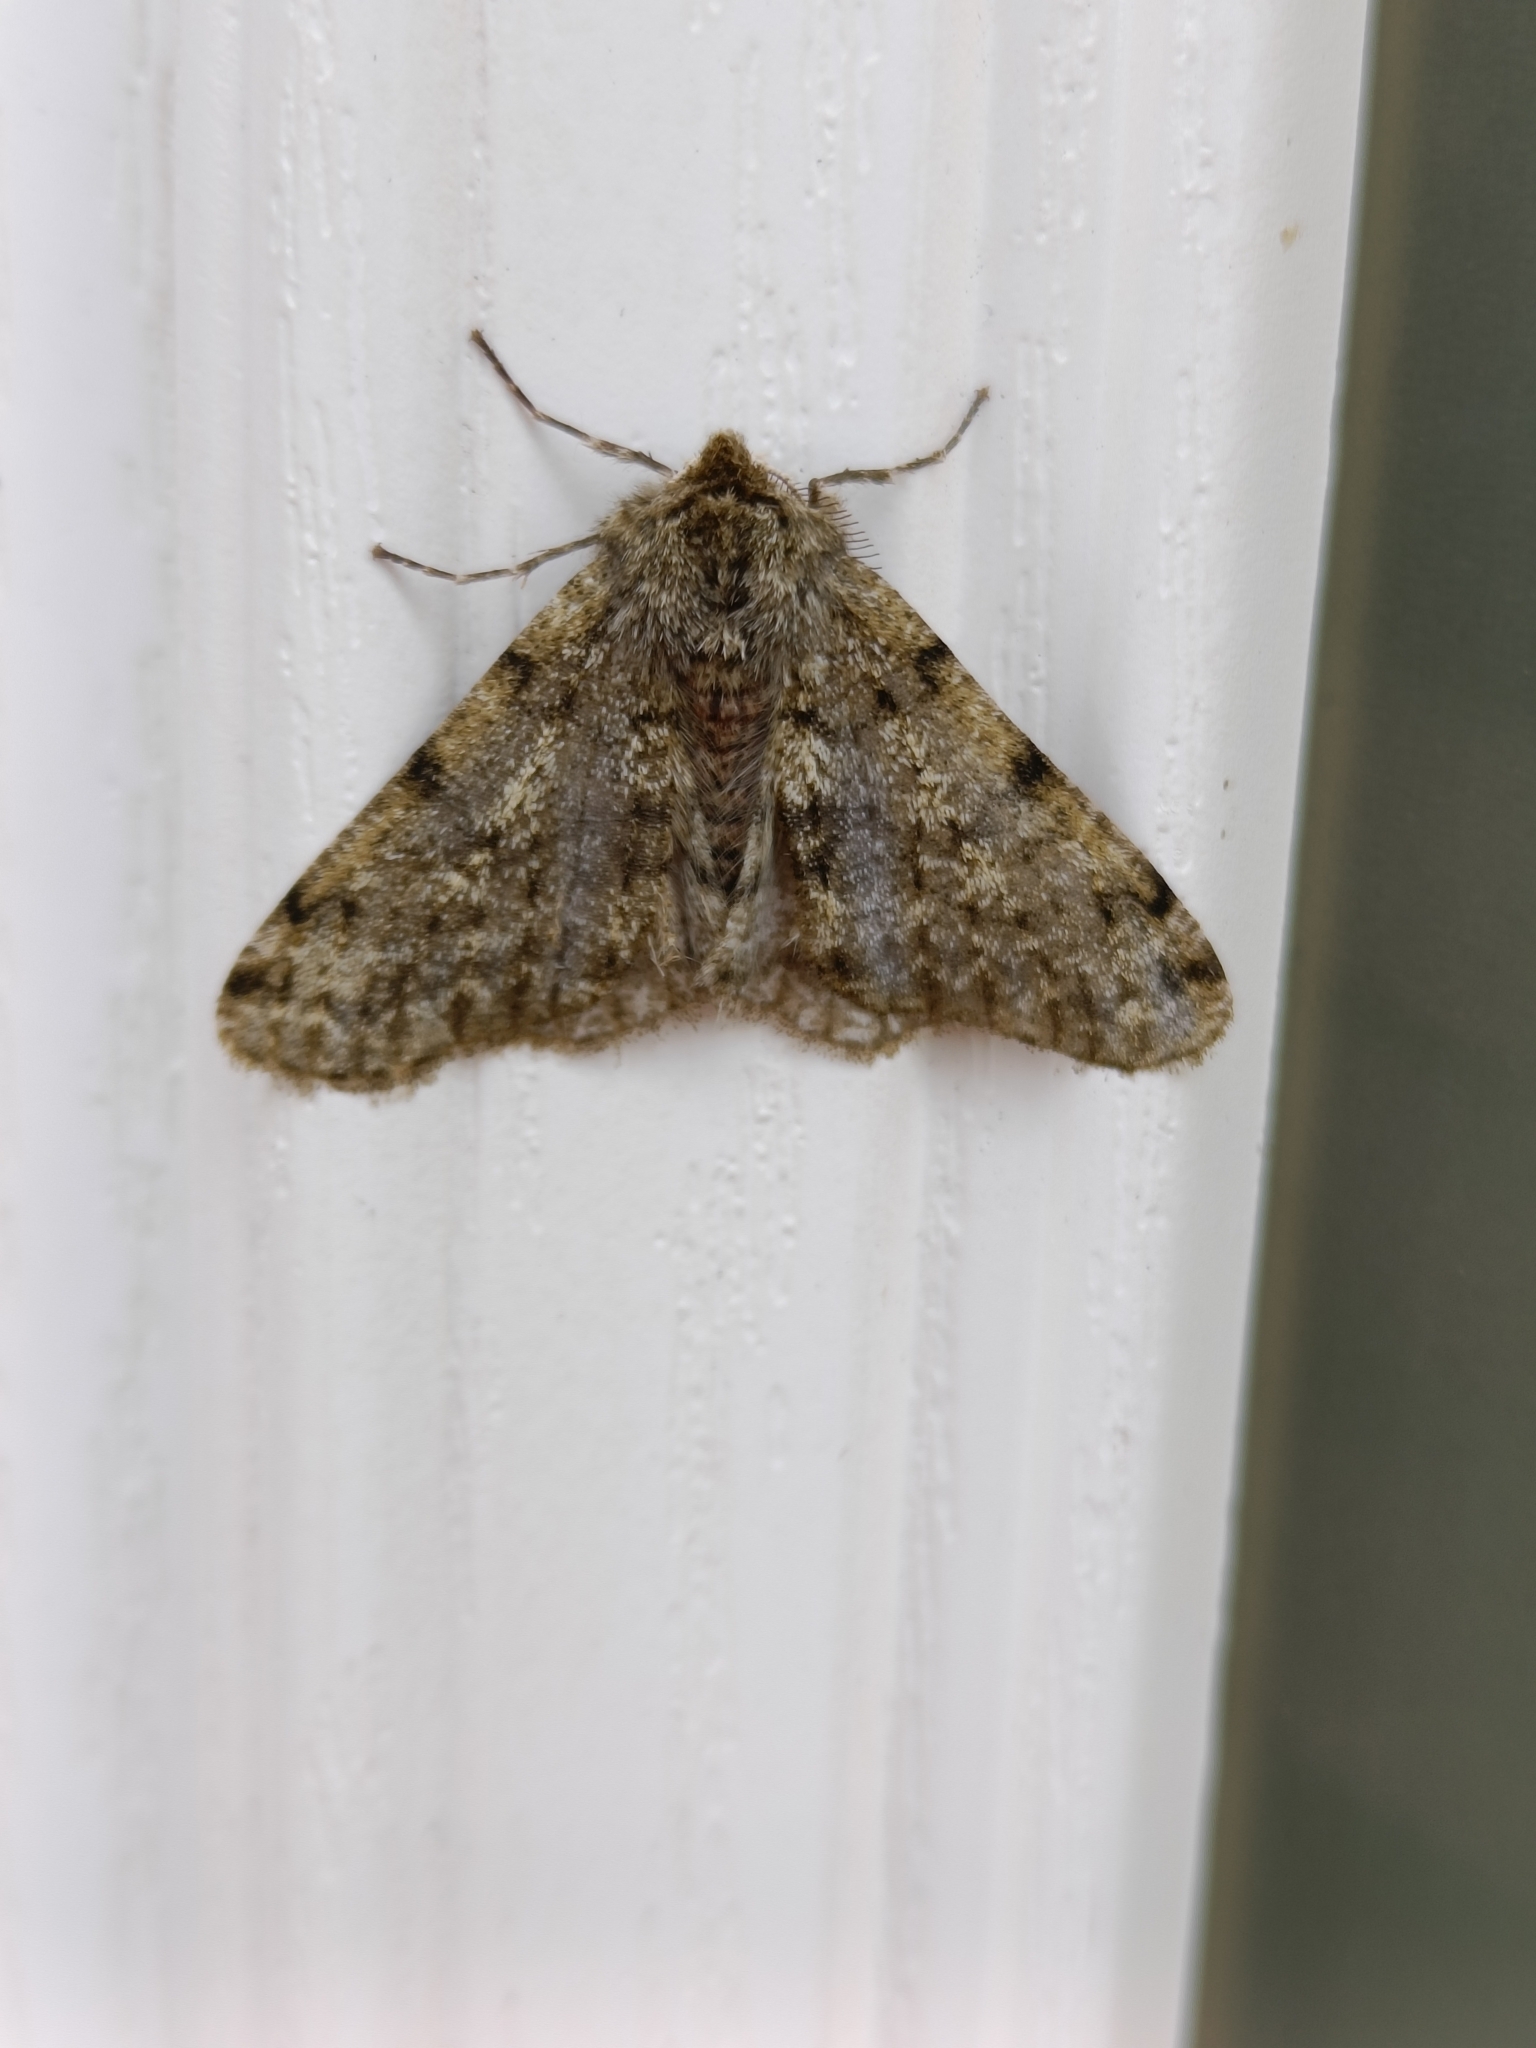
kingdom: Animalia
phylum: Arthropoda
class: Insecta
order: Lepidoptera
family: Geometridae
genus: Phigalia
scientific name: Phigalia pilosaria
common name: Pale brindled beauty
